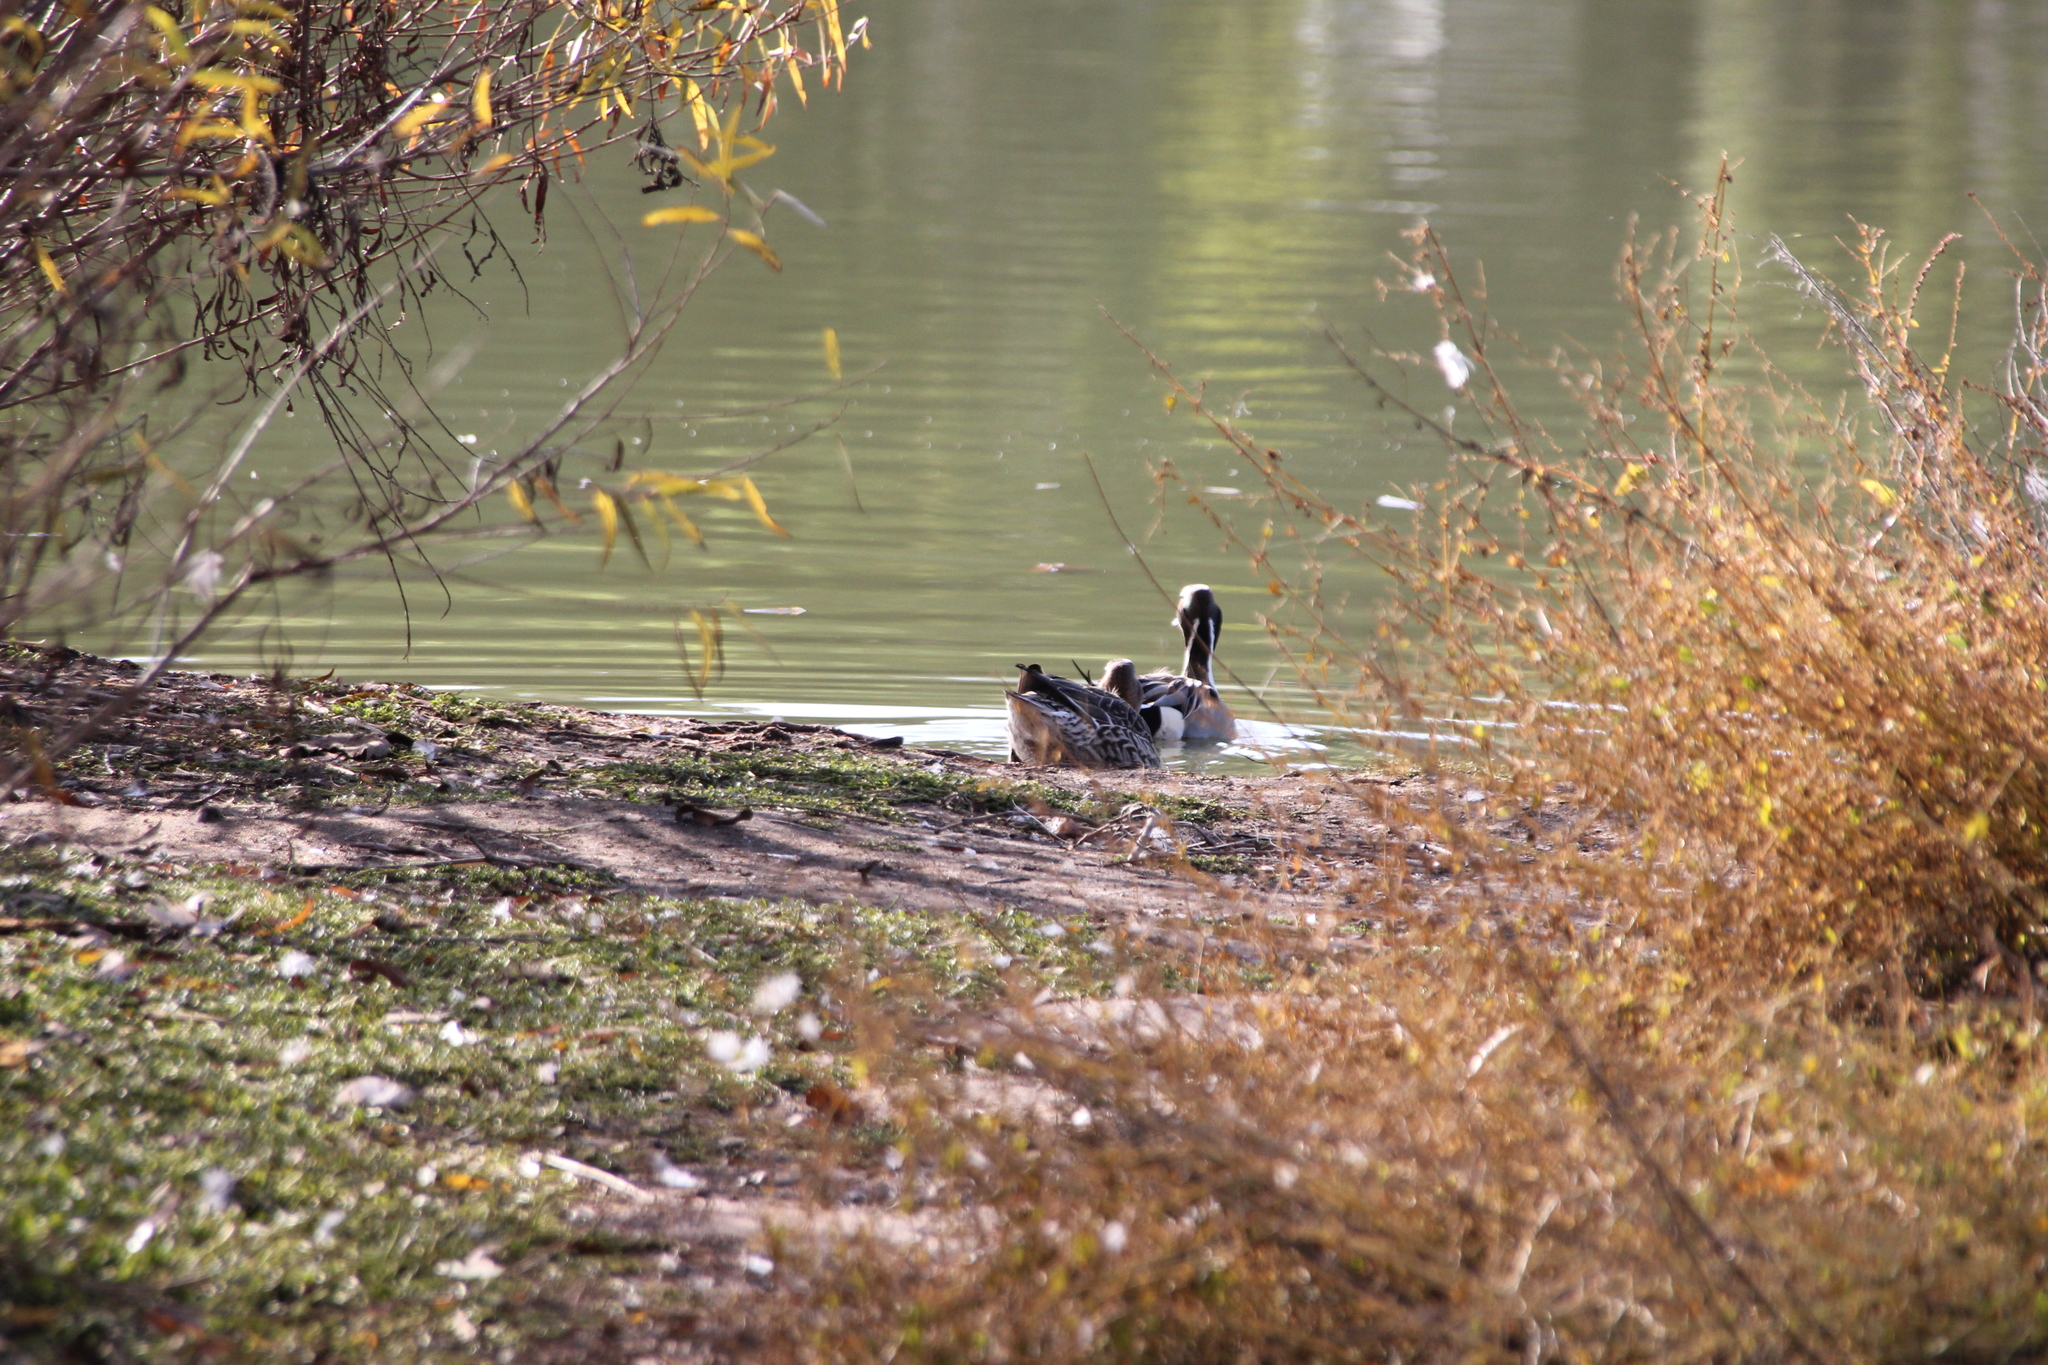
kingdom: Animalia
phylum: Chordata
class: Aves
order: Anseriformes
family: Anatidae
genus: Anas
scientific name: Anas acuta
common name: Northern pintail
